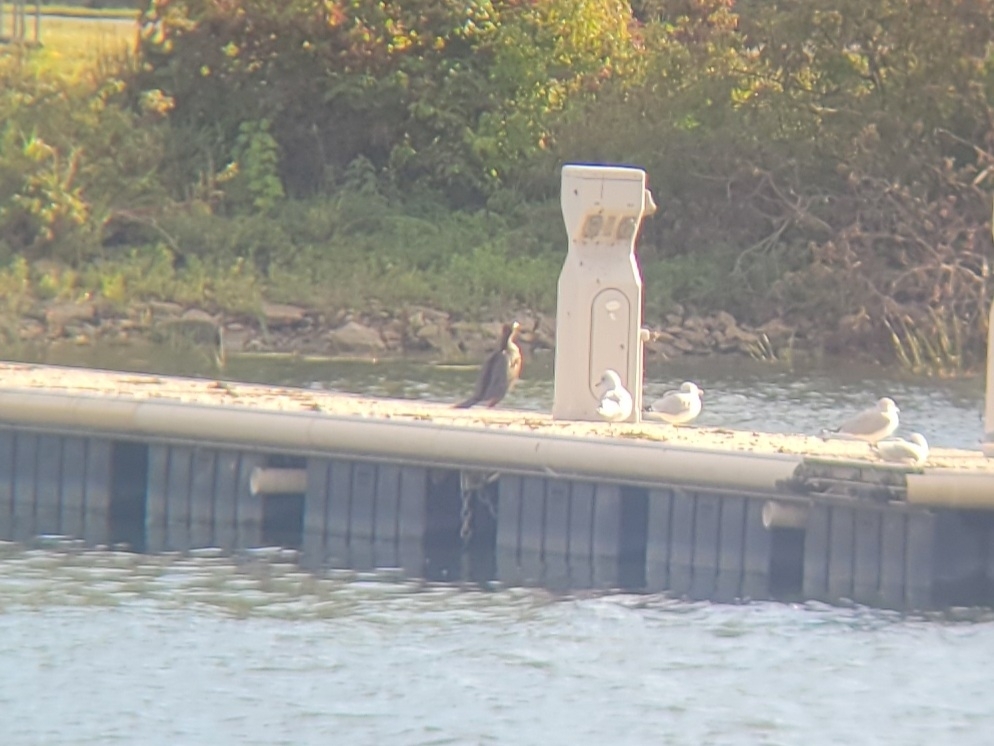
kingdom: Animalia
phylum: Chordata
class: Aves
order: Suliformes
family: Phalacrocoracidae
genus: Phalacrocorax
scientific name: Phalacrocorax auritus
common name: Double-crested cormorant
